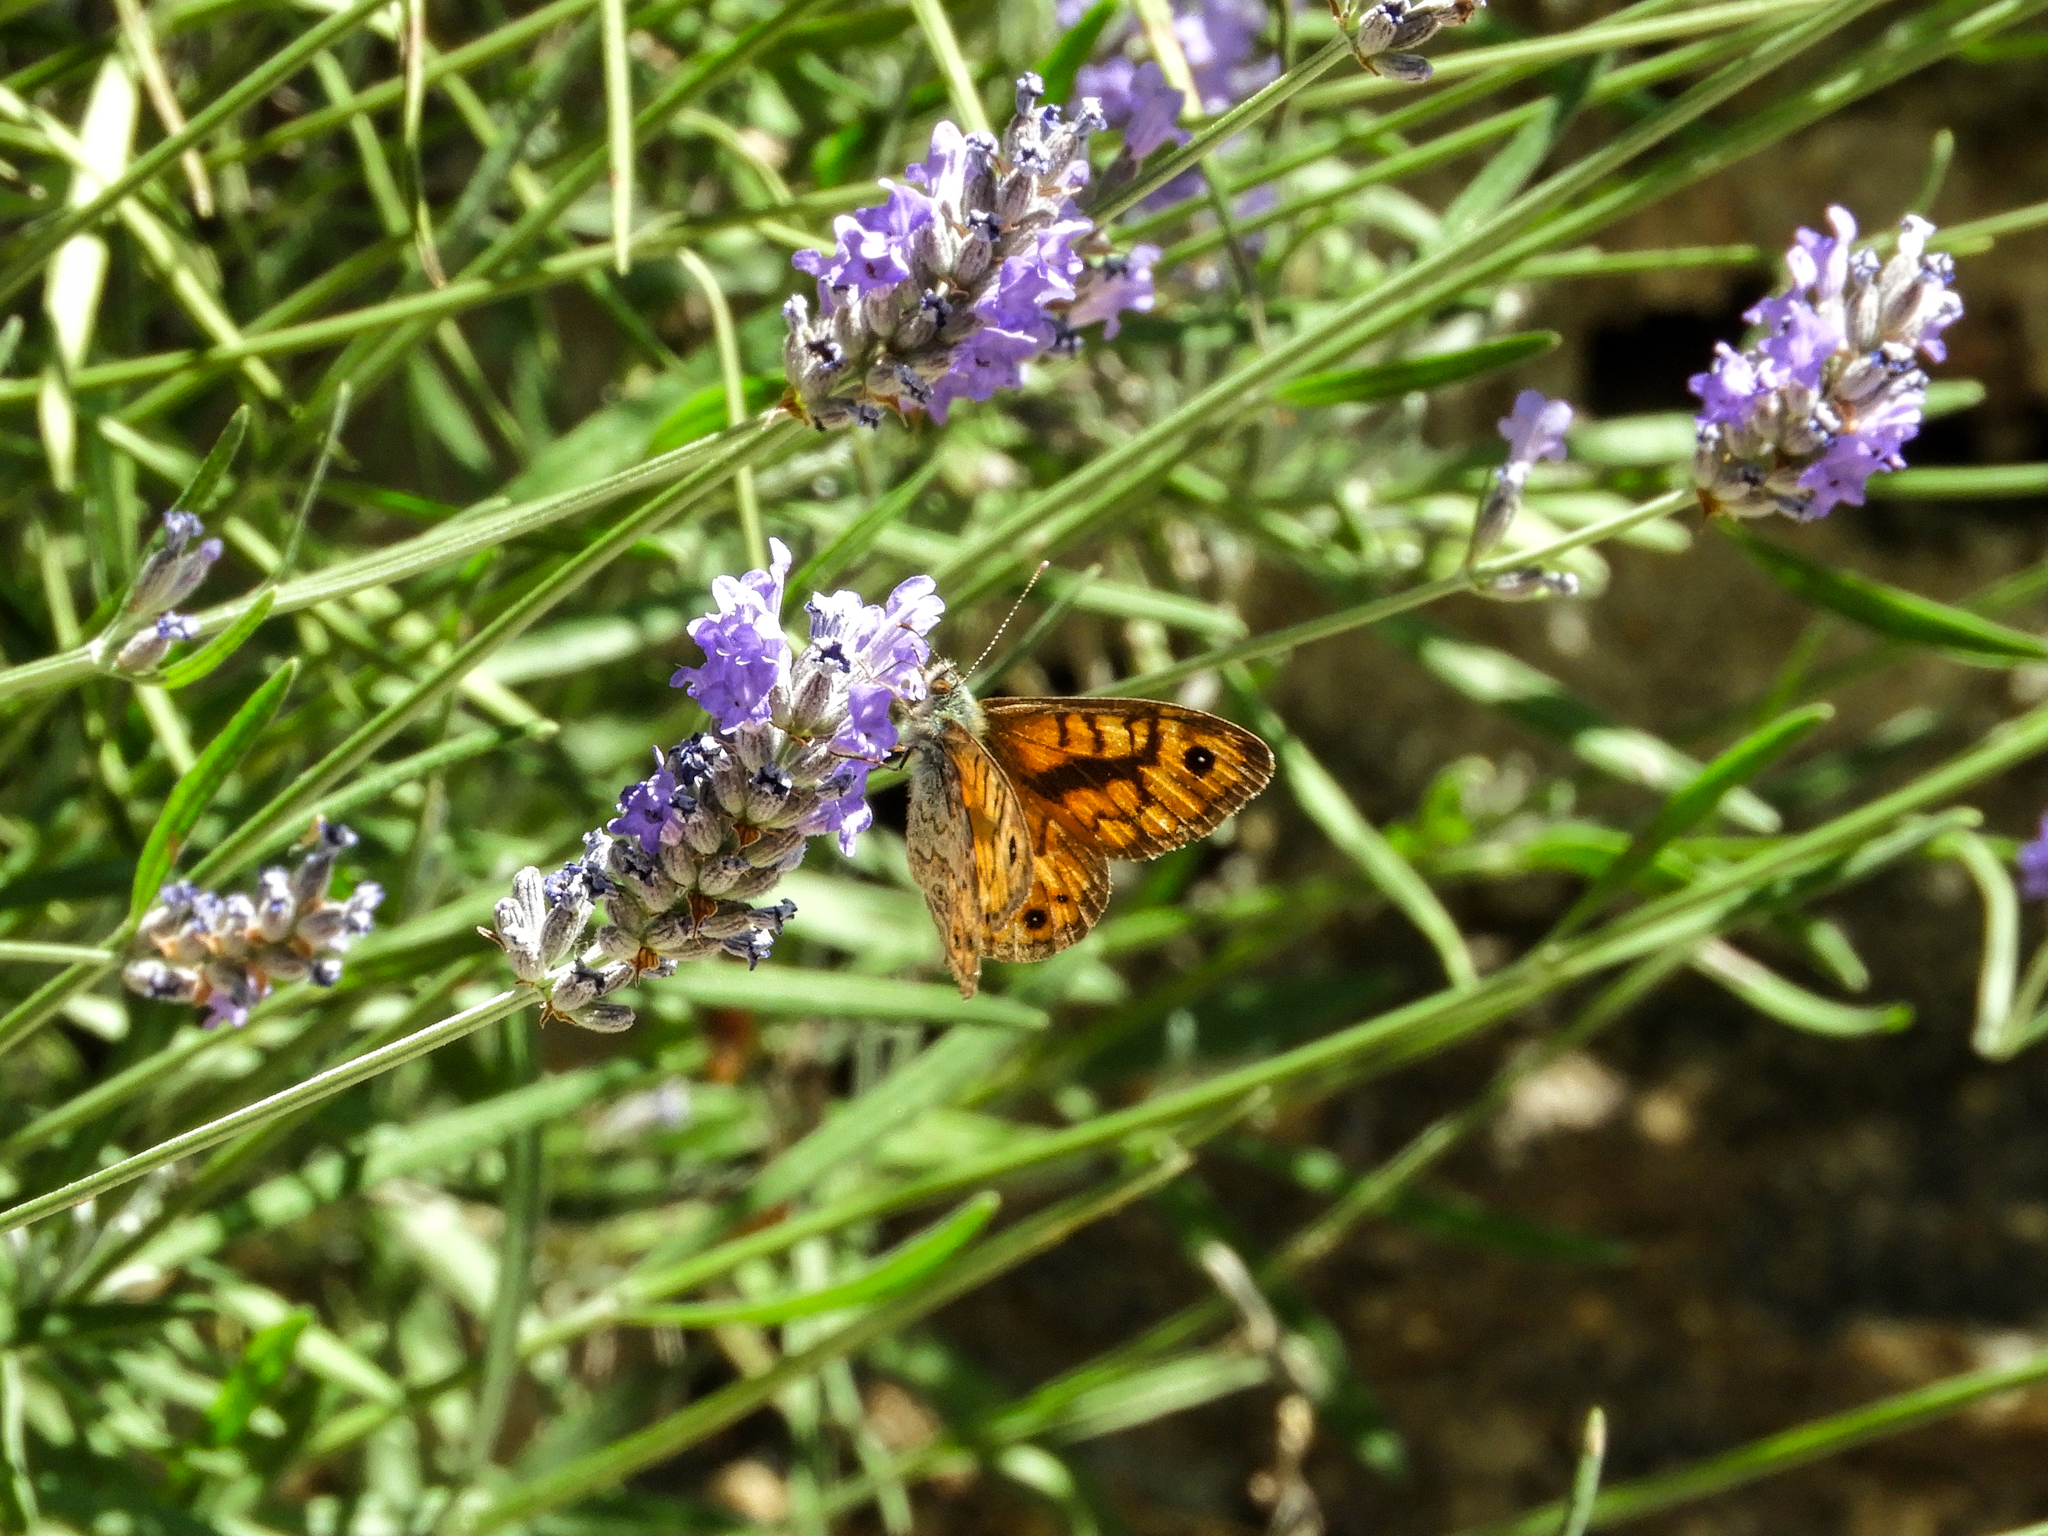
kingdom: Animalia
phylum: Arthropoda
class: Insecta
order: Lepidoptera
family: Nymphalidae
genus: Pararge
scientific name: Pararge Lasiommata megera
